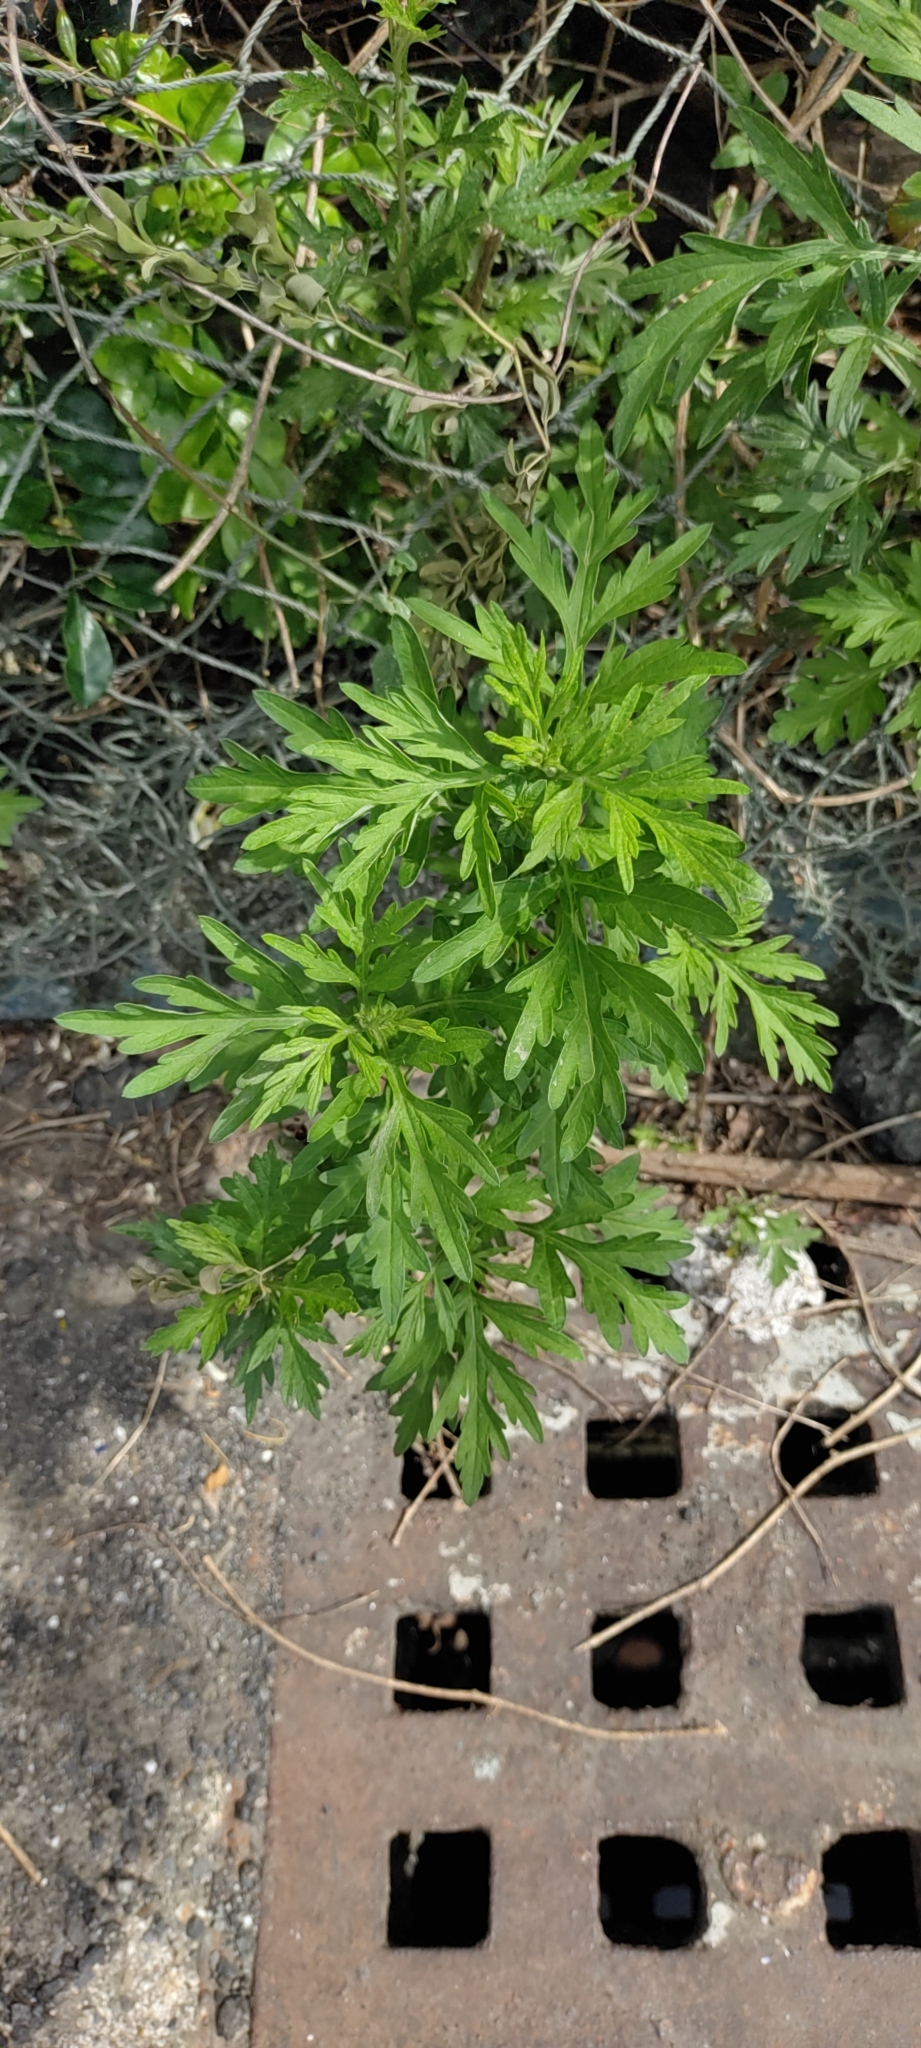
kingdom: Plantae
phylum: Tracheophyta
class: Magnoliopsida
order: Asterales
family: Asteraceae
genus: Artemisia
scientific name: Artemisia indica
